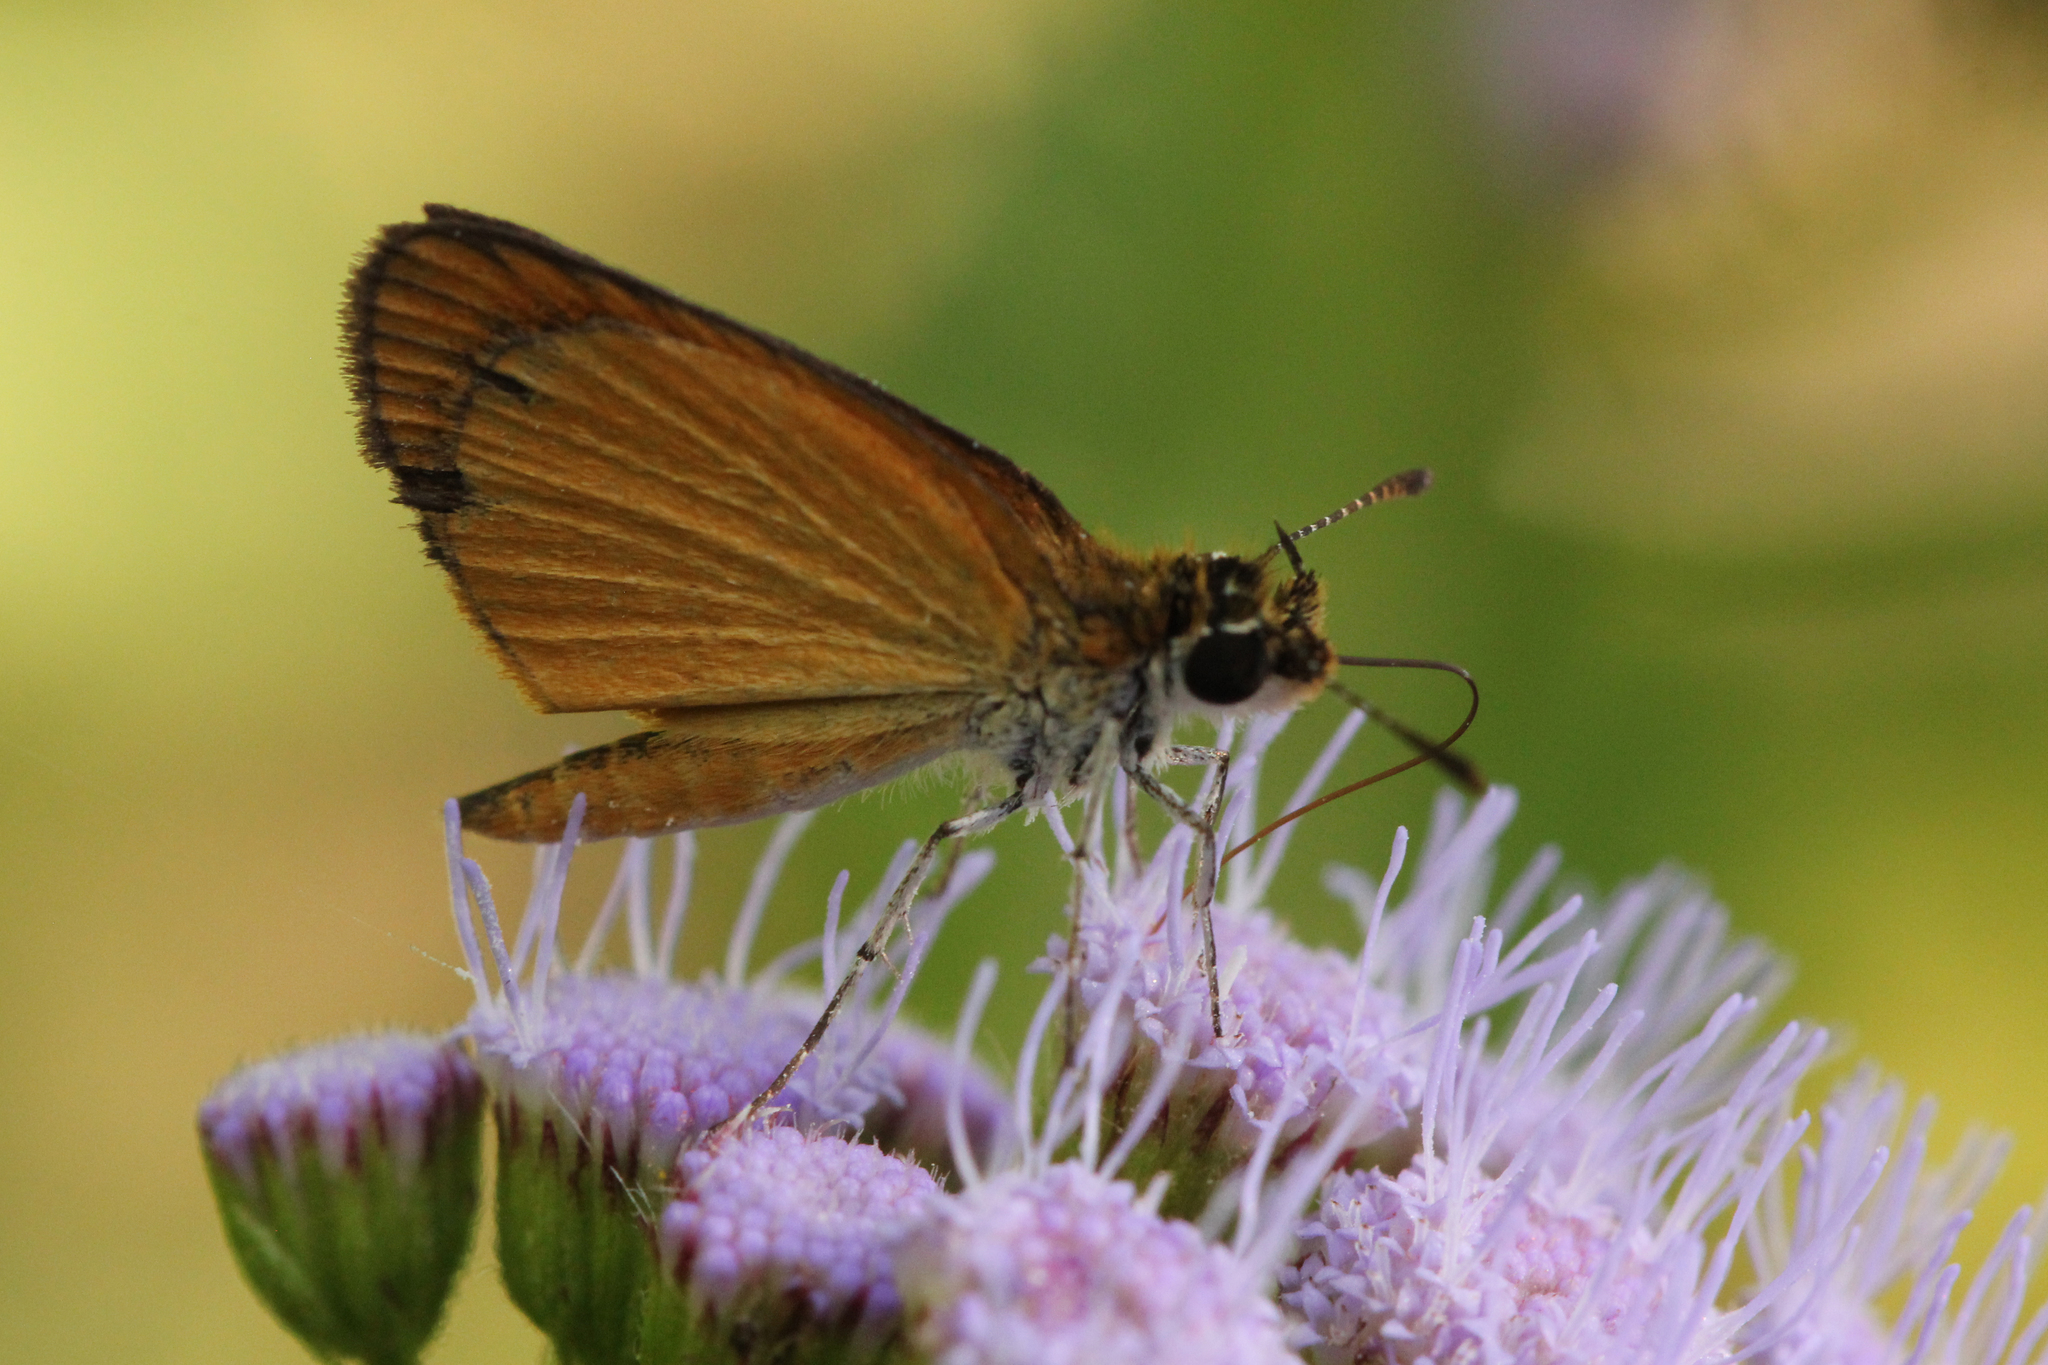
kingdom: Animalia
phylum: Arthropoda
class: Insecta
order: Lepidoptera
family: Hesperiidae
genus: Ancyloxypha
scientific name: Ancyloxypha numitor
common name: Least skipper
